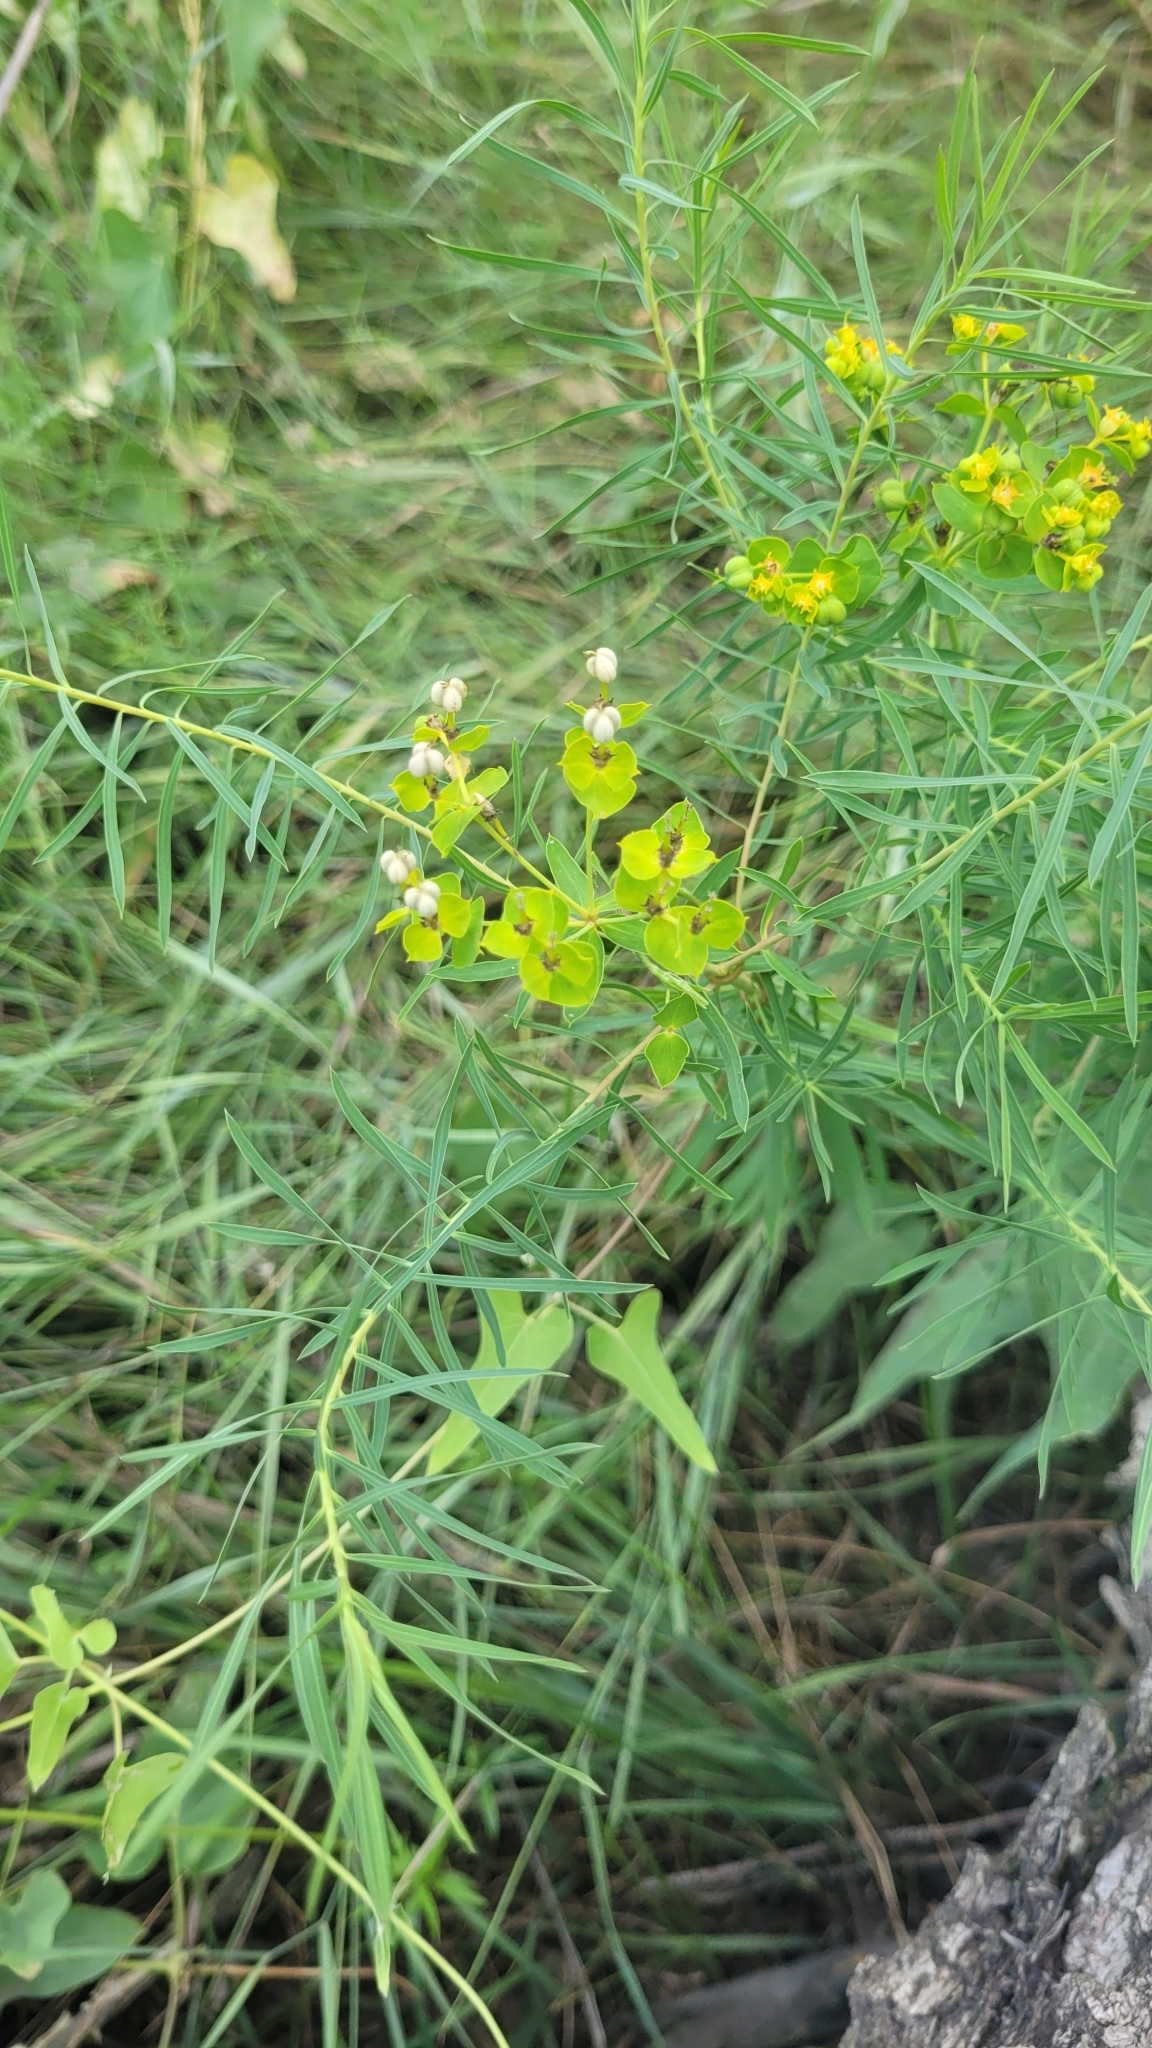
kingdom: Plantae
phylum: Tracheophyta
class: Magnoliopsida
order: Malpighiales
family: Euphorbiaceae
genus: Euphorbia
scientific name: Euphorbia virgata
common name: Leafy spurge
